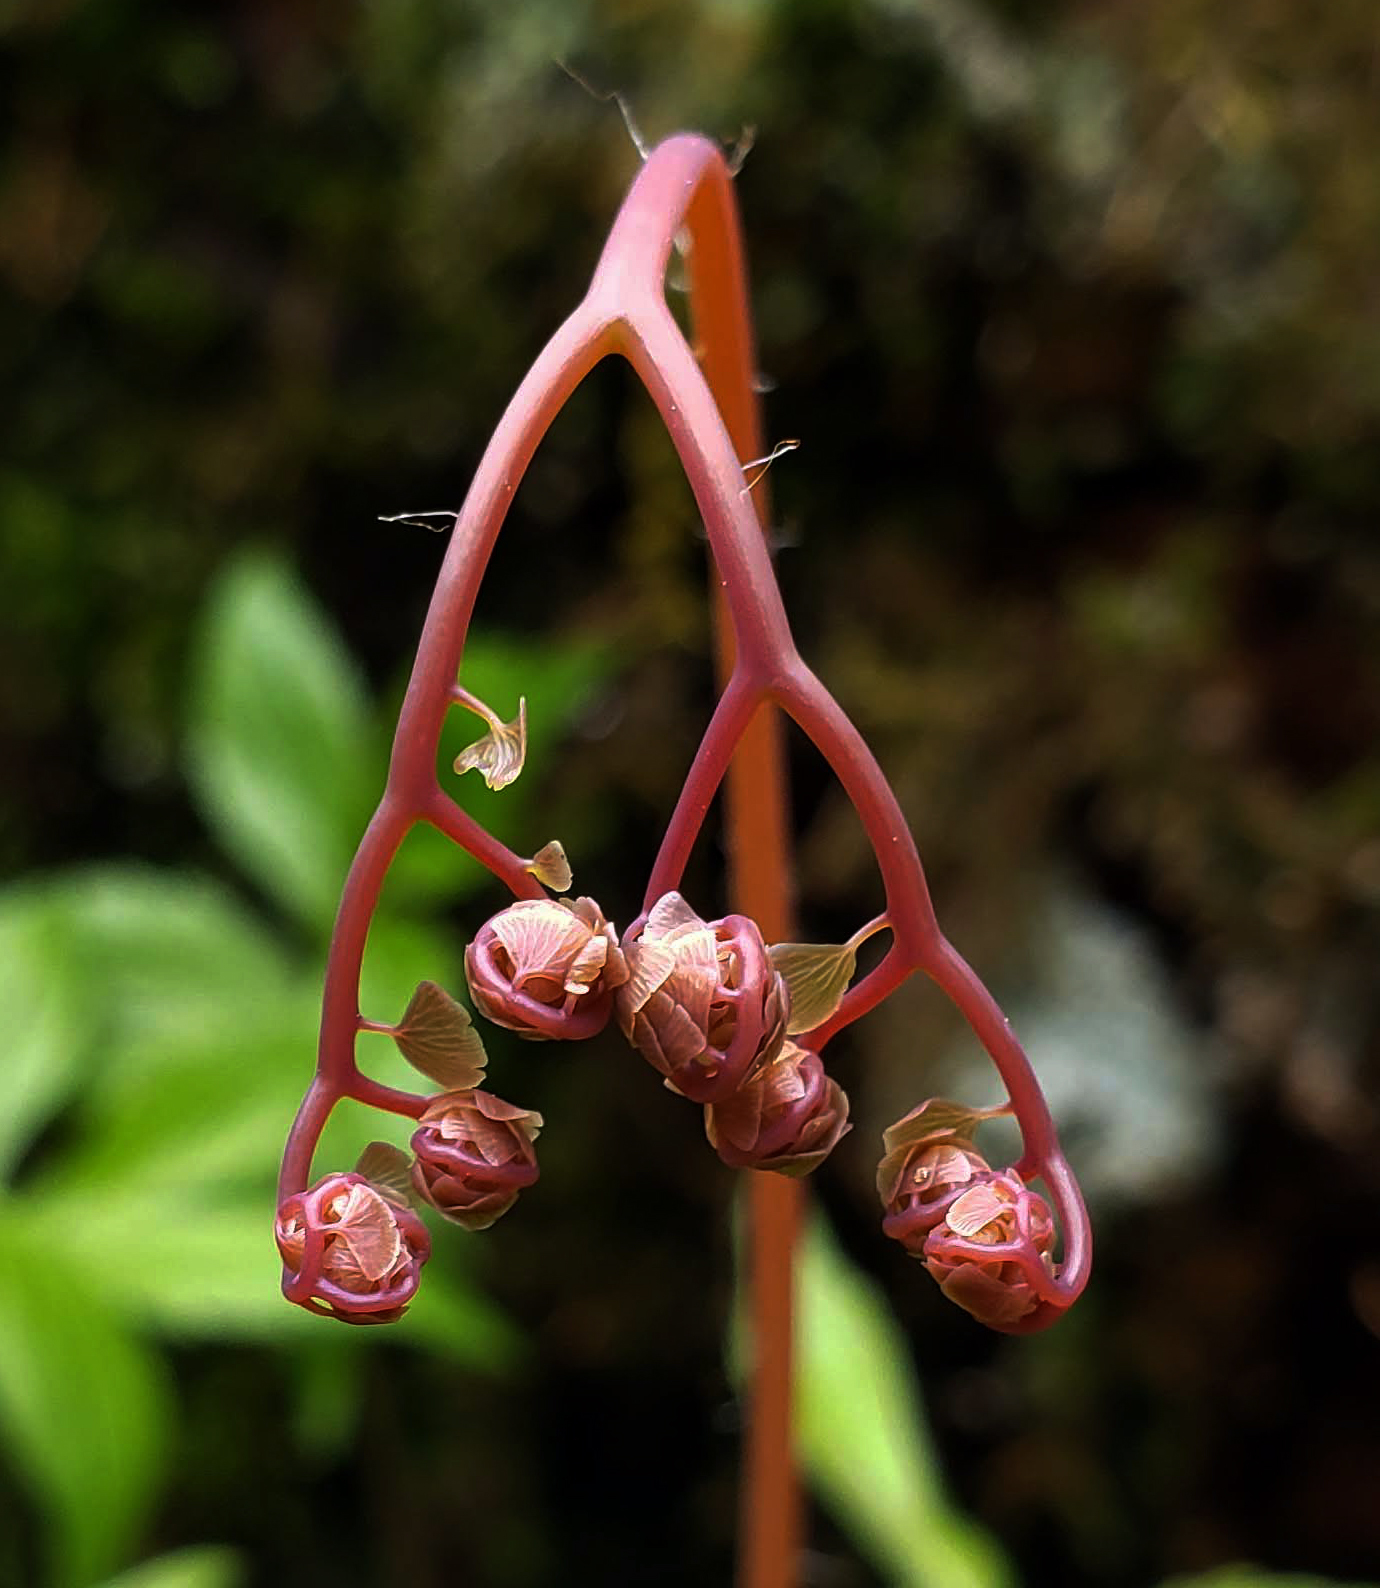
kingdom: Plantae
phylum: Tracheophyta
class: Polypodiopsida
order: Polypodiales
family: Pteridaceae
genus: Adiantum
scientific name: Adiantum pedatum
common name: Five-finger fern
